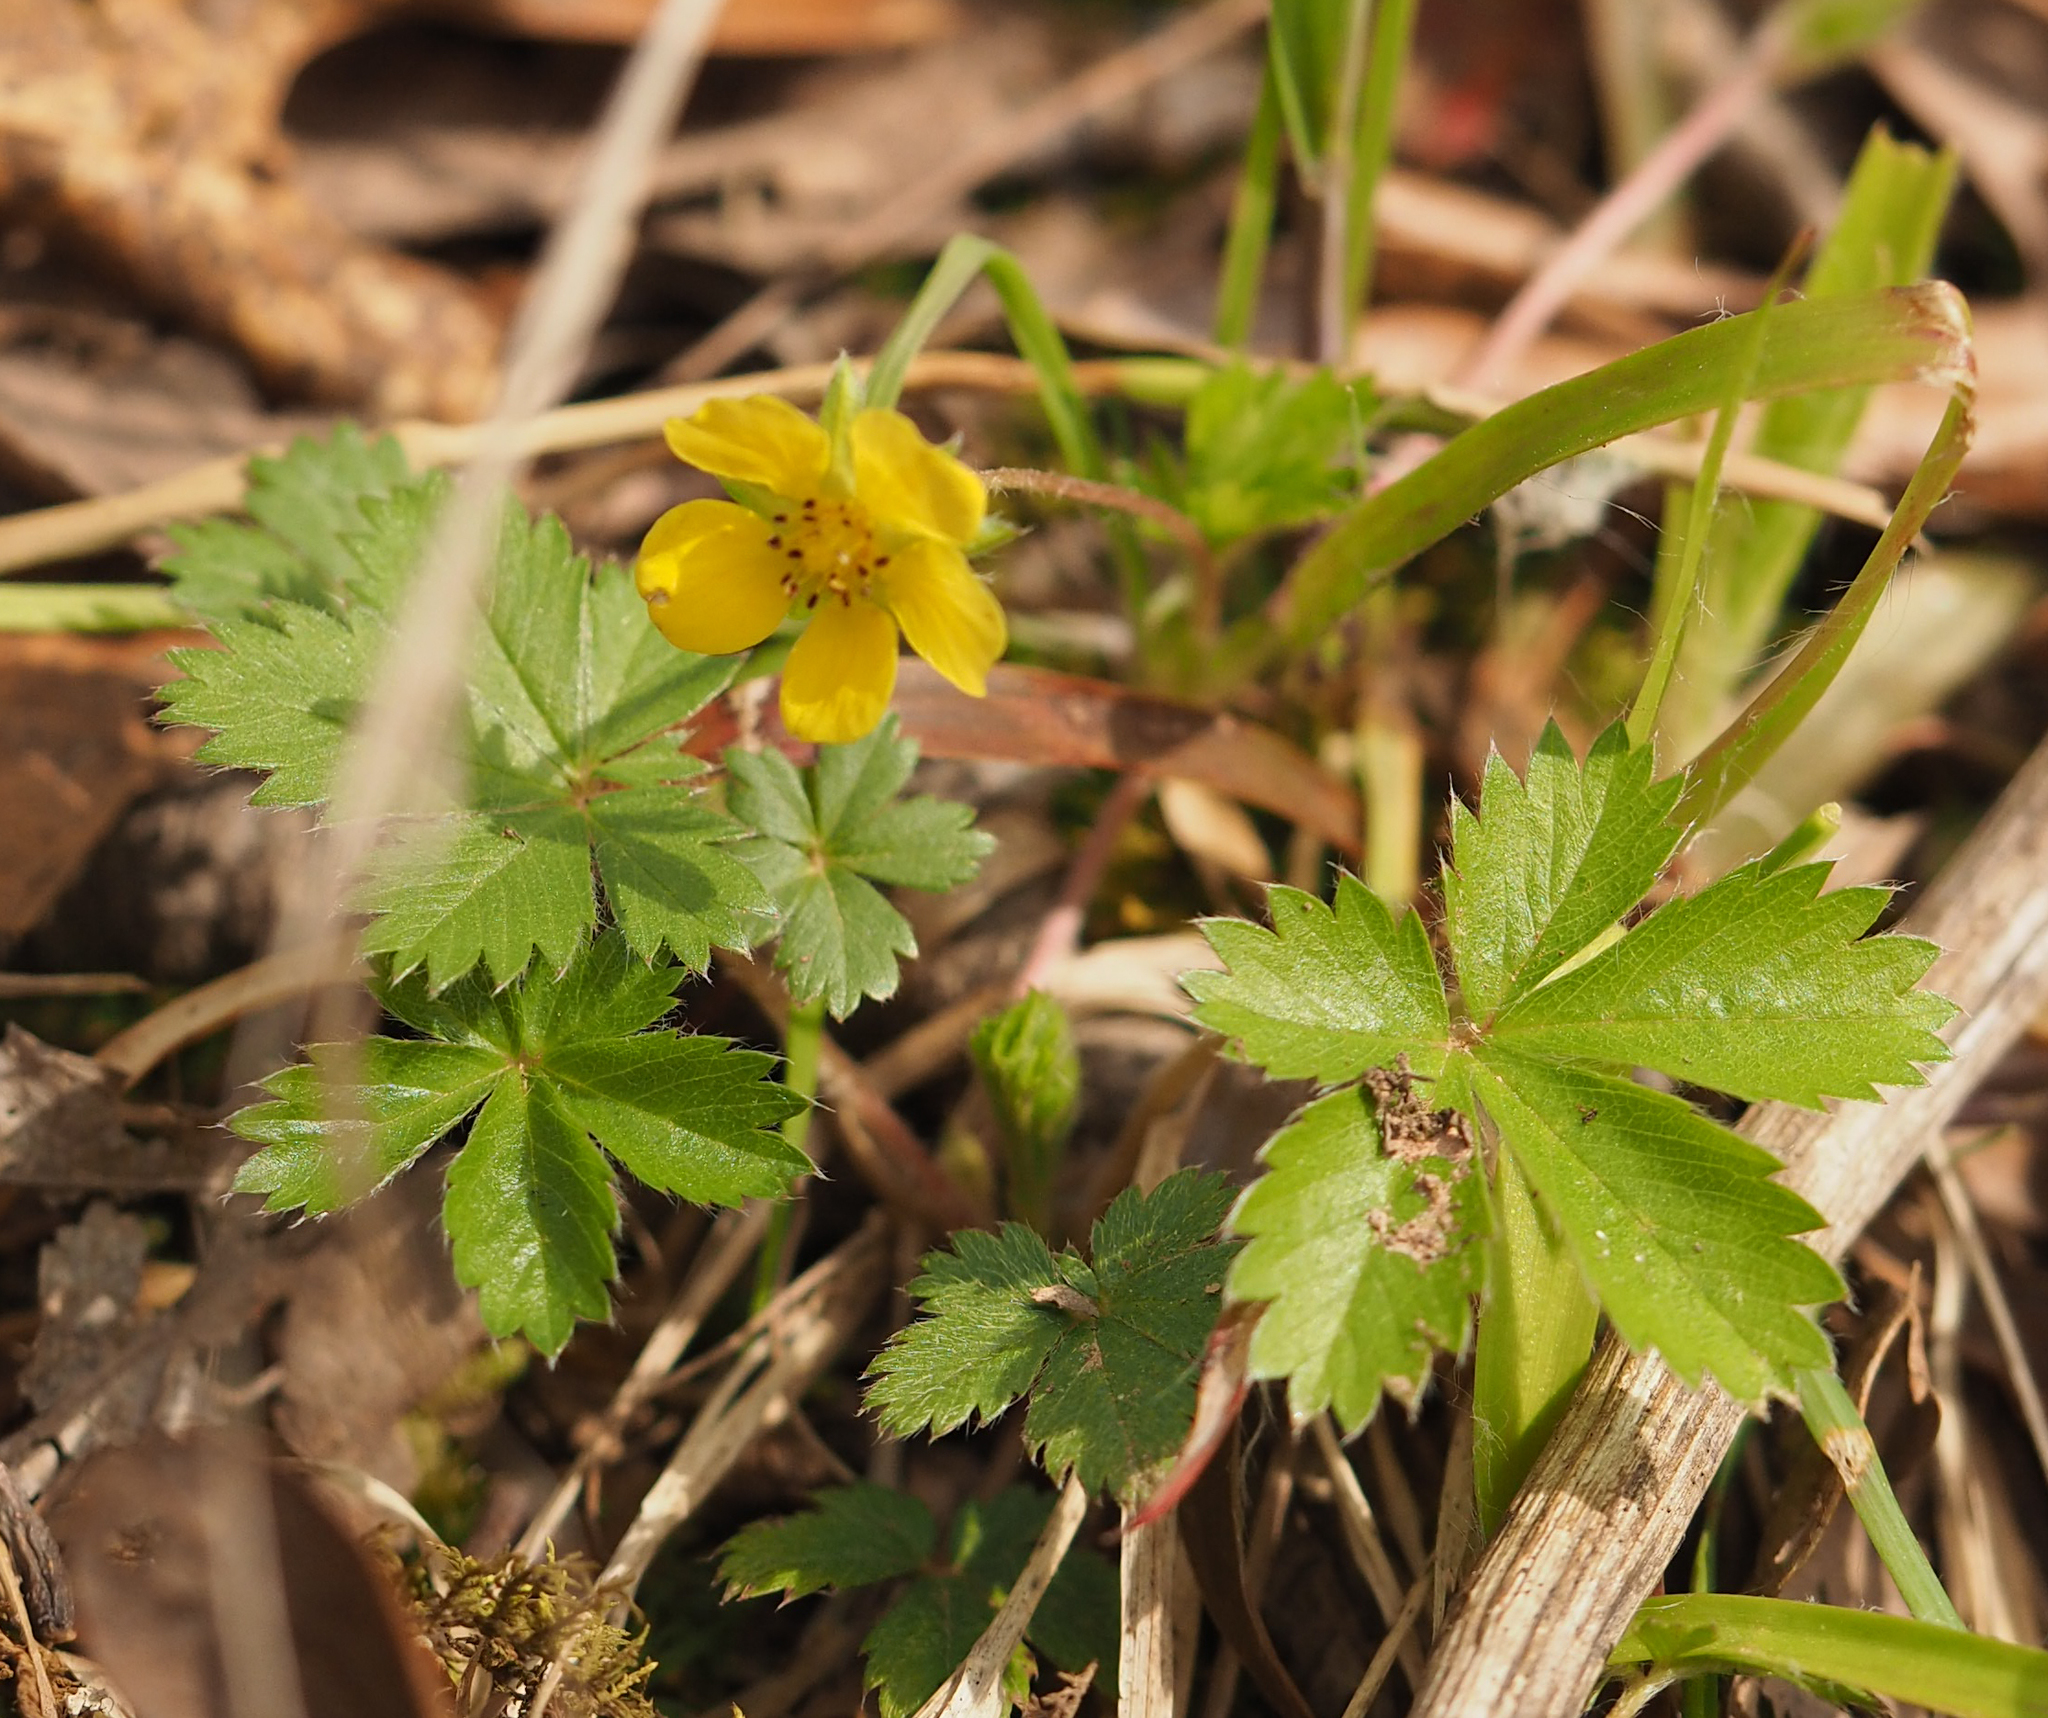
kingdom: Plantae
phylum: Tracheophyta
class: Magnoliopsida
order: Rosales
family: Rosaceae
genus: Potentilla
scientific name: Potentilla canadensis
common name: Canada cinquefoil
